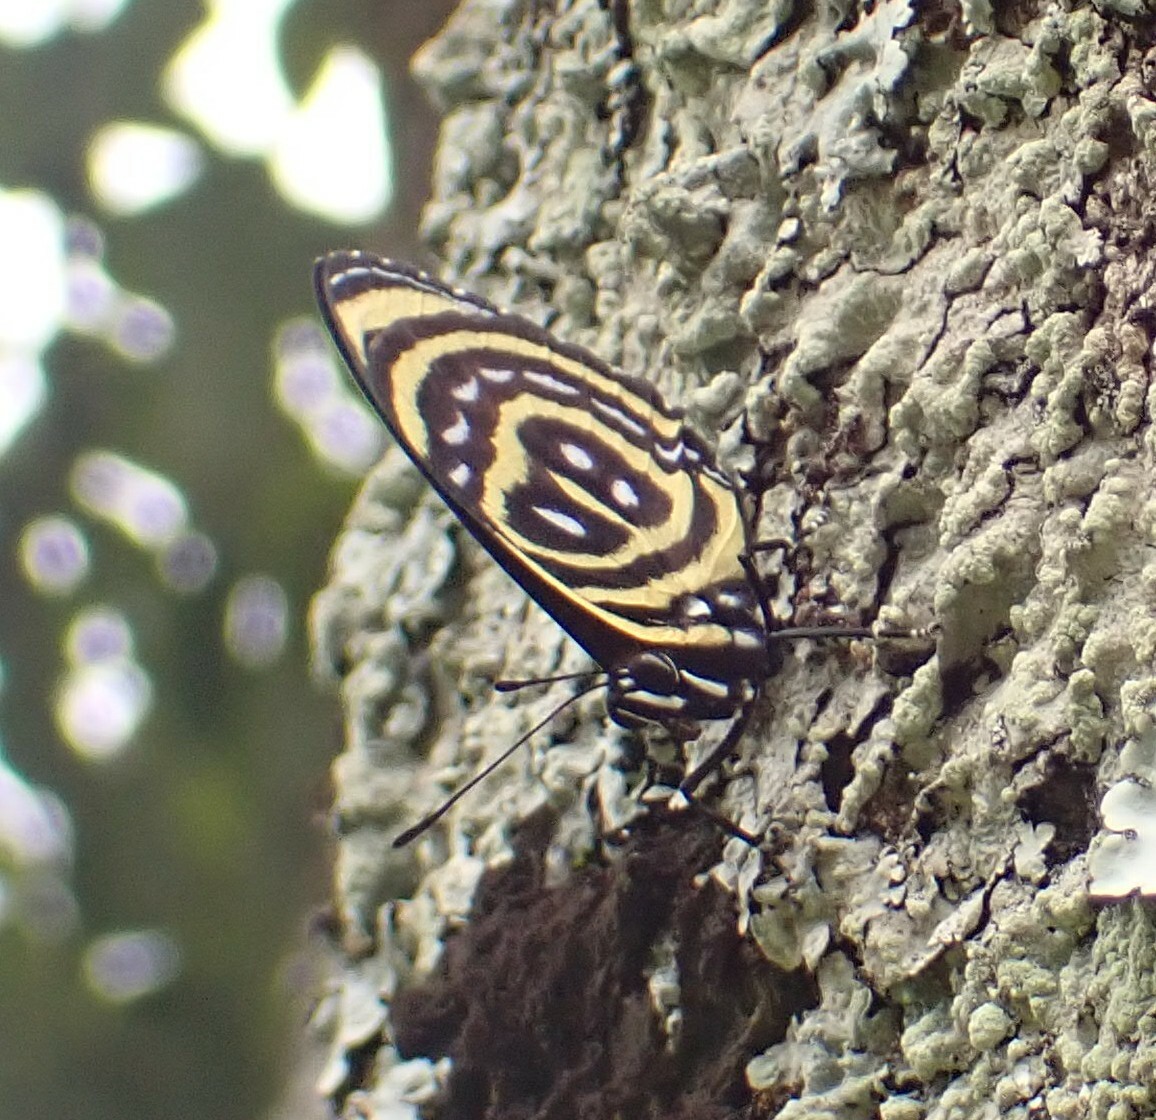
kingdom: Animalia
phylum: Arthropoda
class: Insecta
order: Lepidoptera
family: Nymphalidae
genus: Catagramma
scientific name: Catagramma astarte
